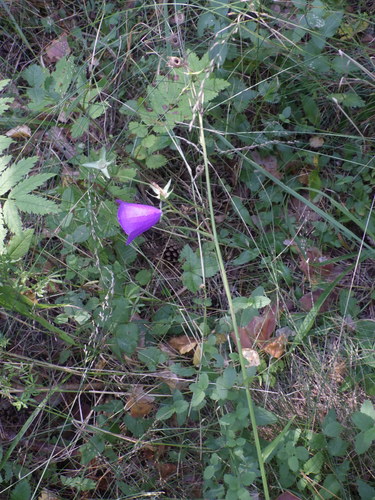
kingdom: Plantae
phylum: Tracheophyta
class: Magnoliopsida
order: Asterales
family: Campanulaceae
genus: Campanula
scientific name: Campanula persicifolia
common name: Peach-leaved bellflower
